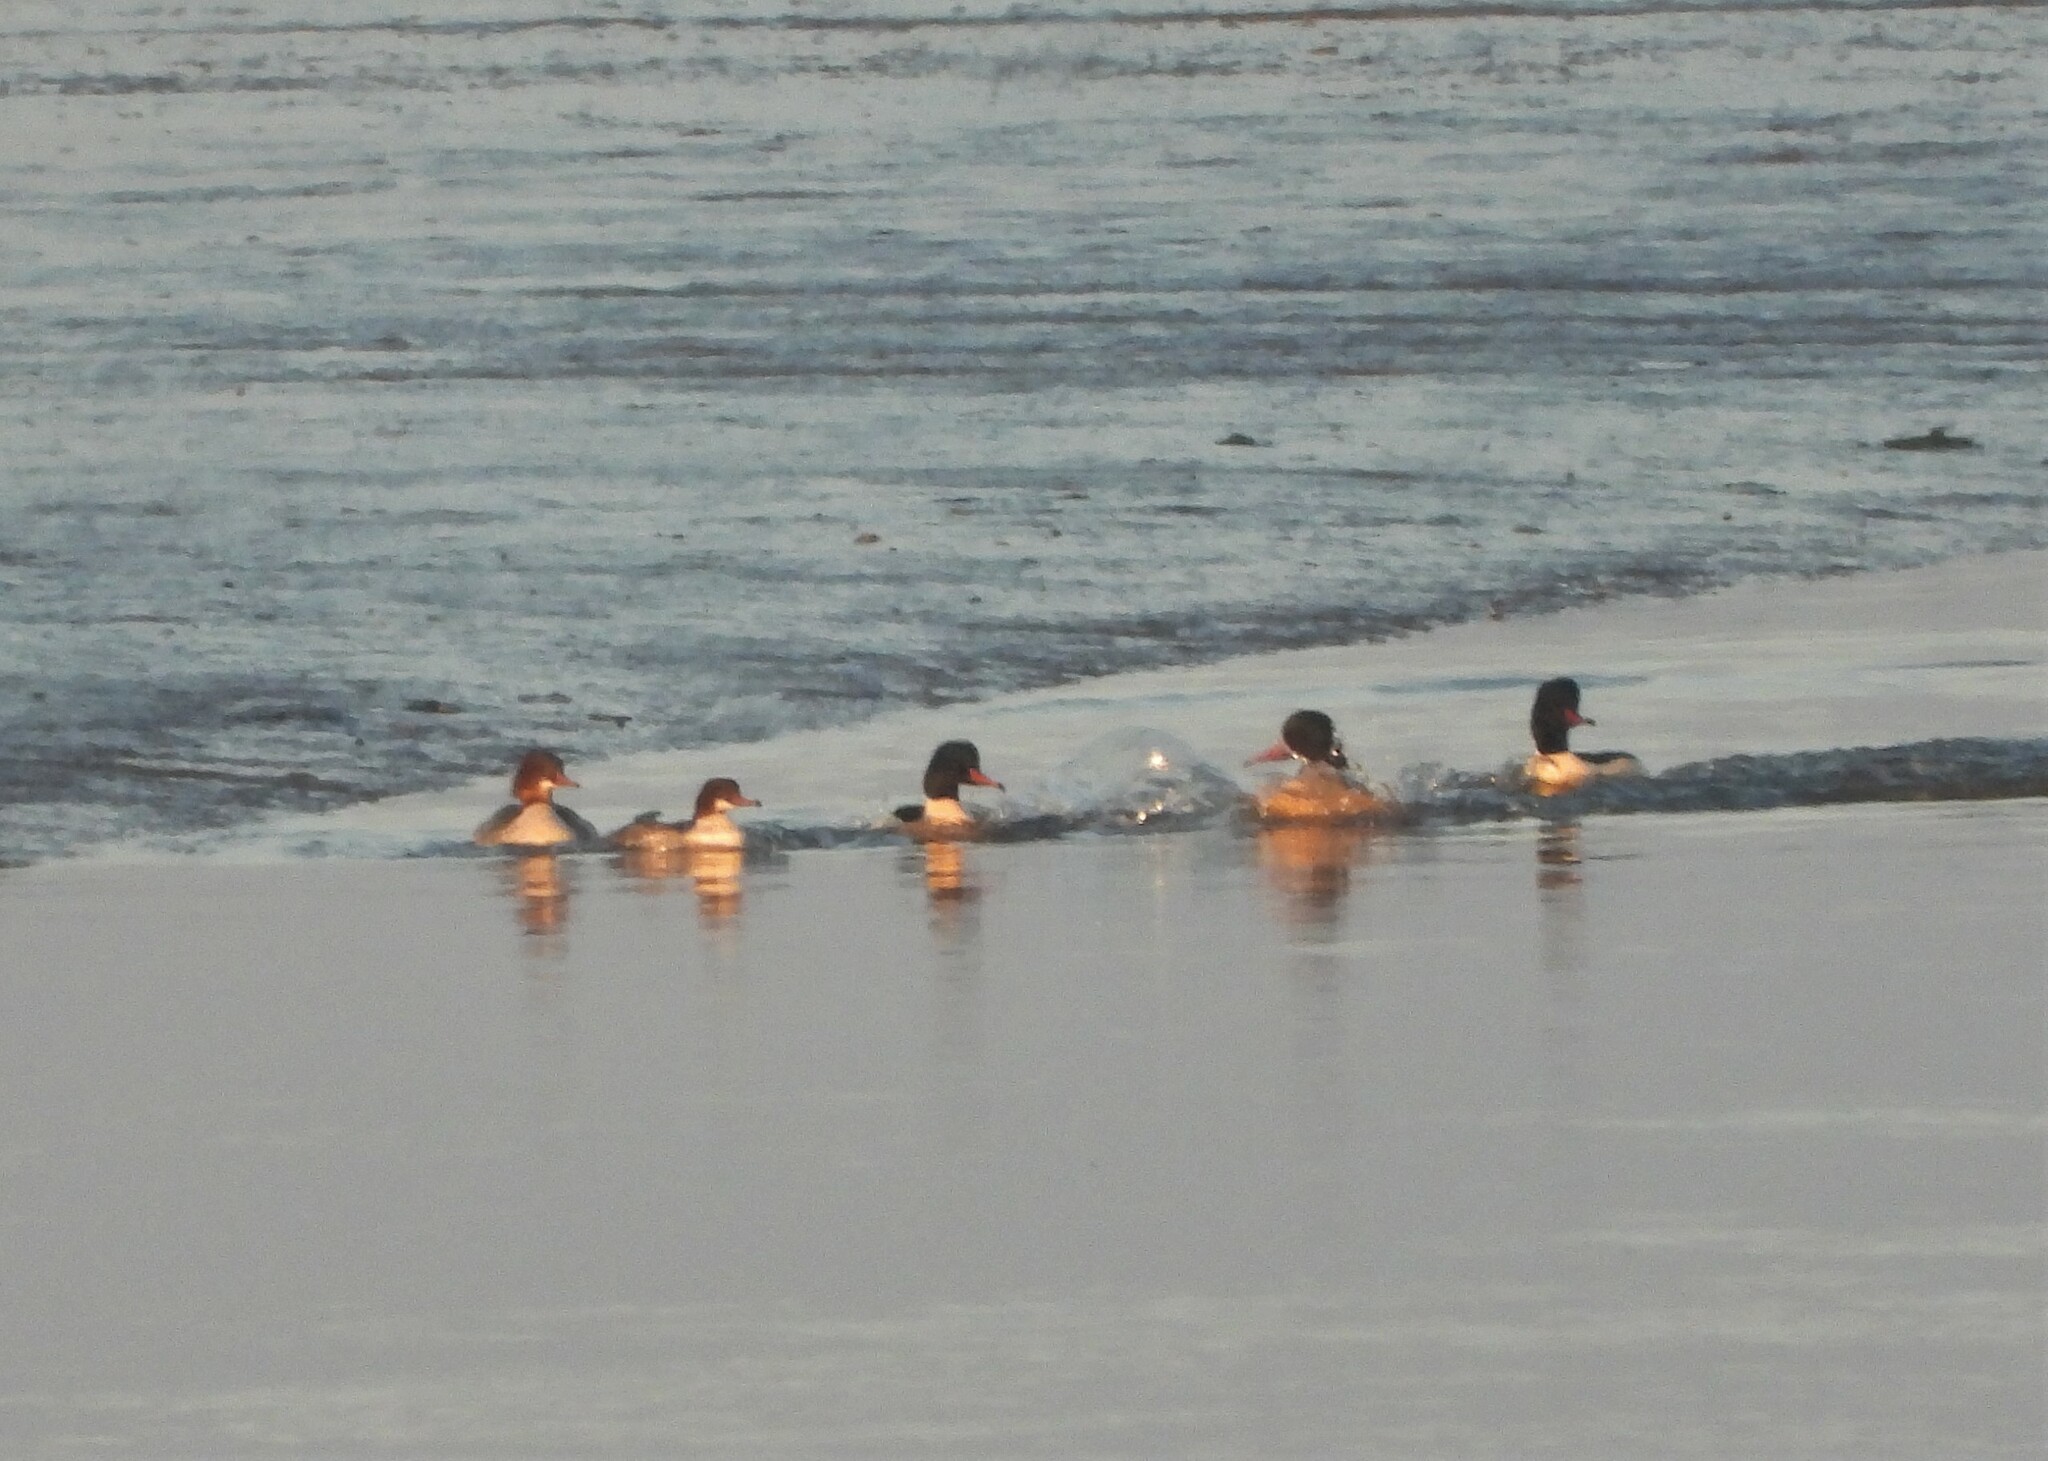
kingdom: Animalia
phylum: Chordata
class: Aves
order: Anseriformes
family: Anatidae
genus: Mergus
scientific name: Mergus merganser
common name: Common merganser
